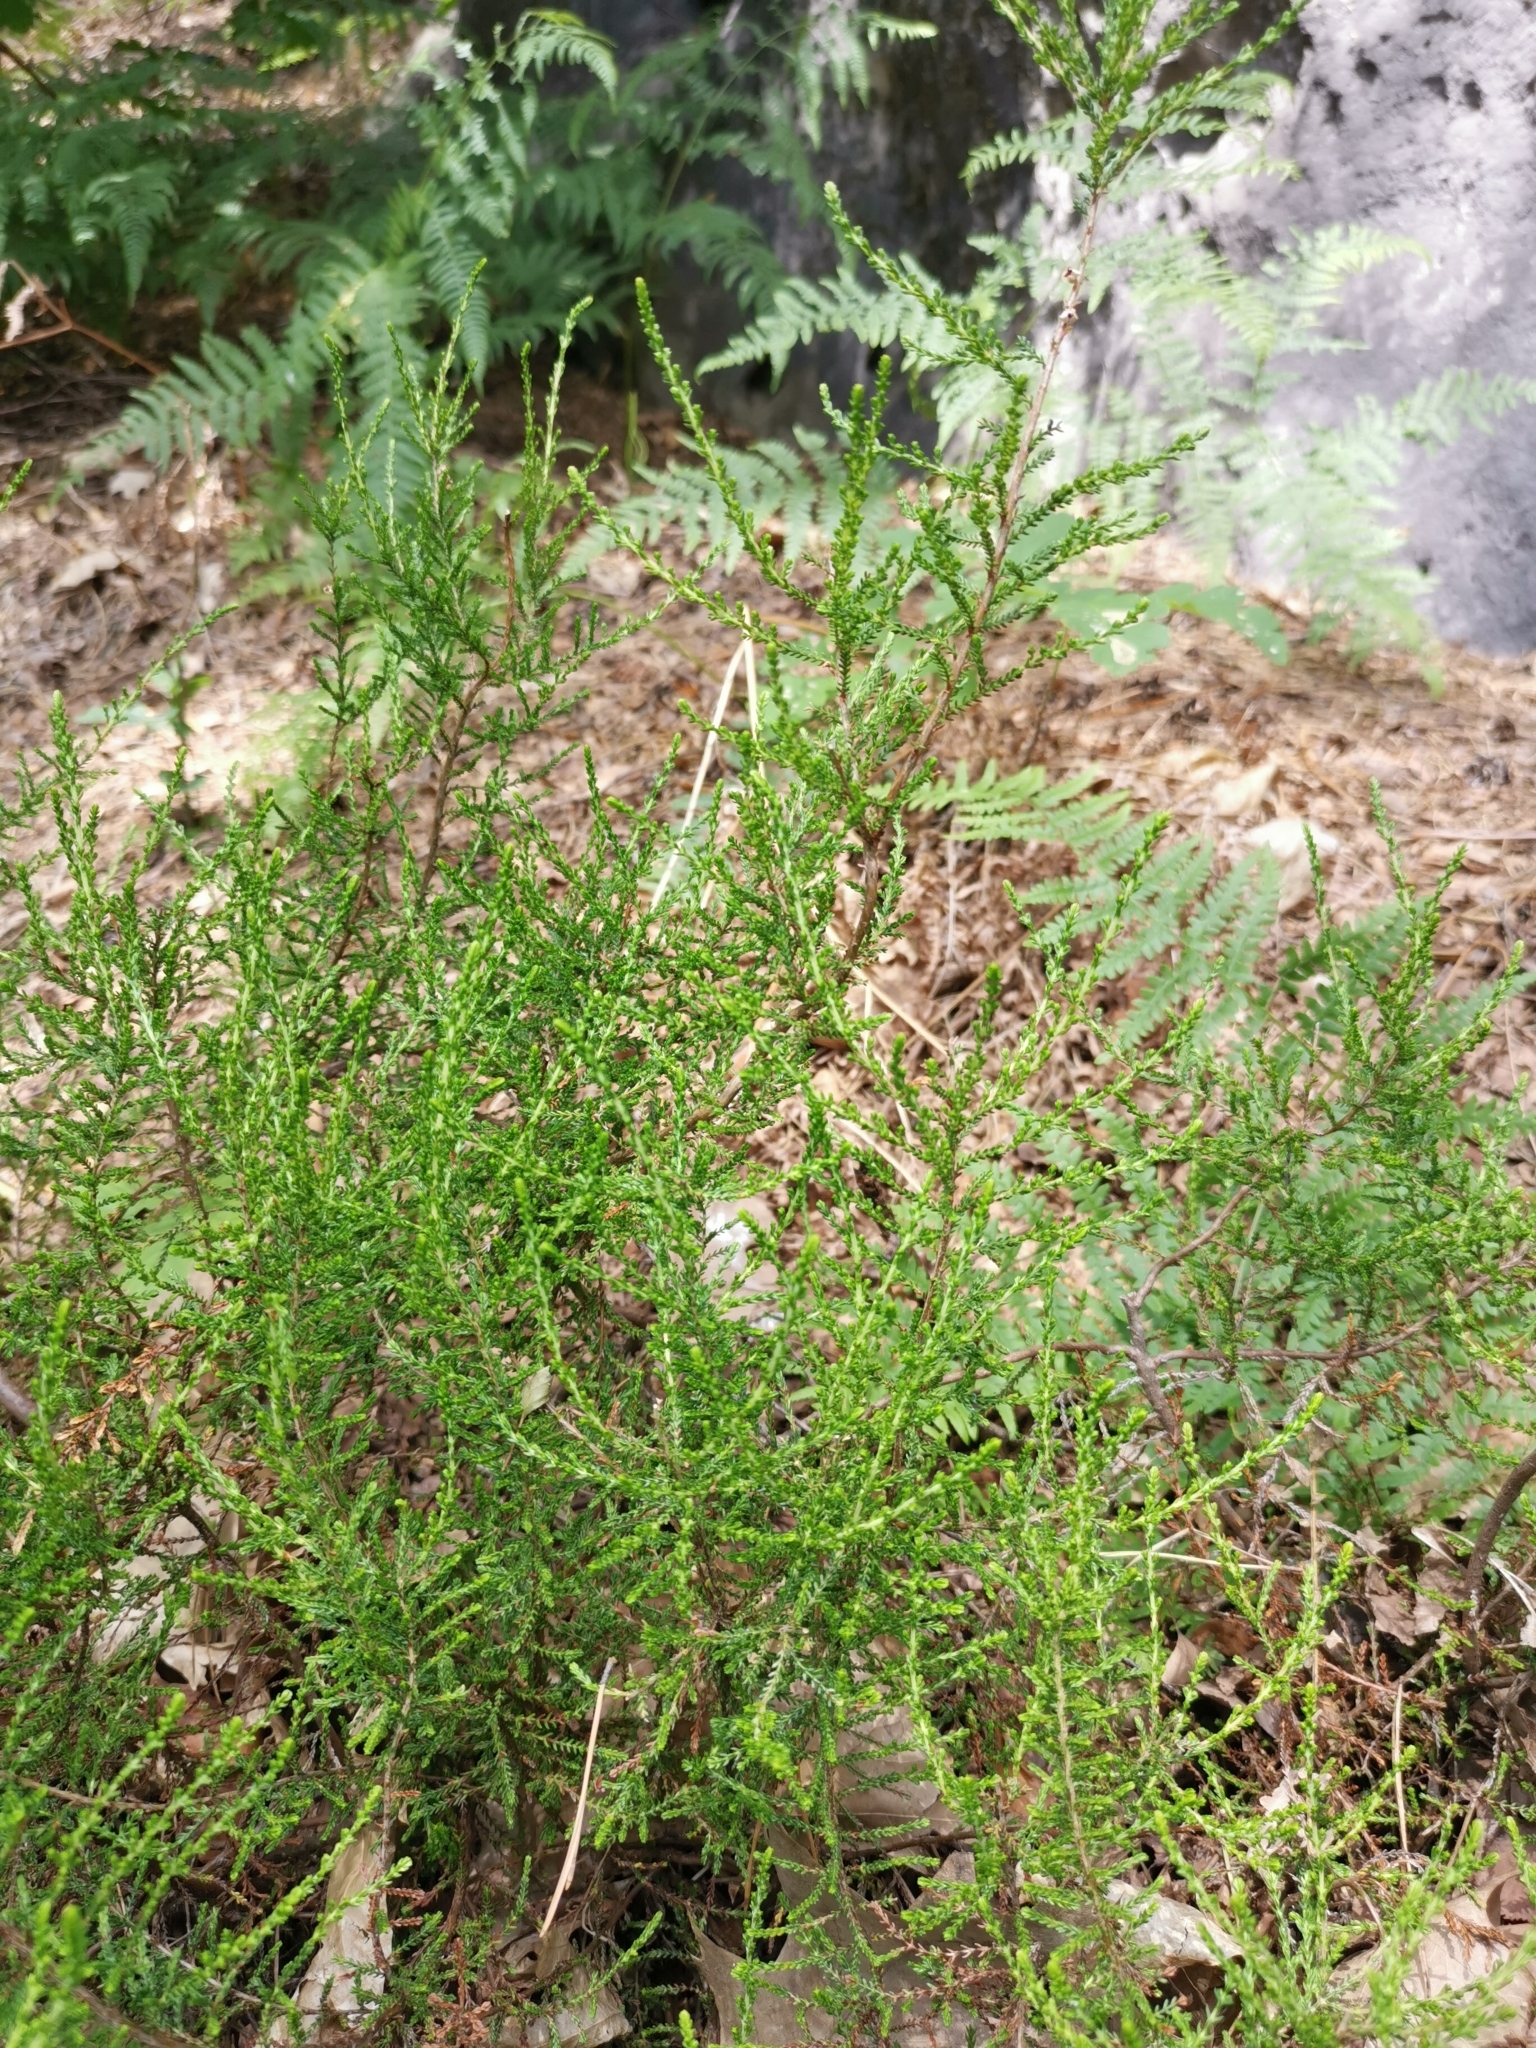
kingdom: Plantae
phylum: Tracheophyta
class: Magnoliopsida
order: Ericales
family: Ericaceae
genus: Calluna
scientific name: Calluna vulgaris
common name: Heather
